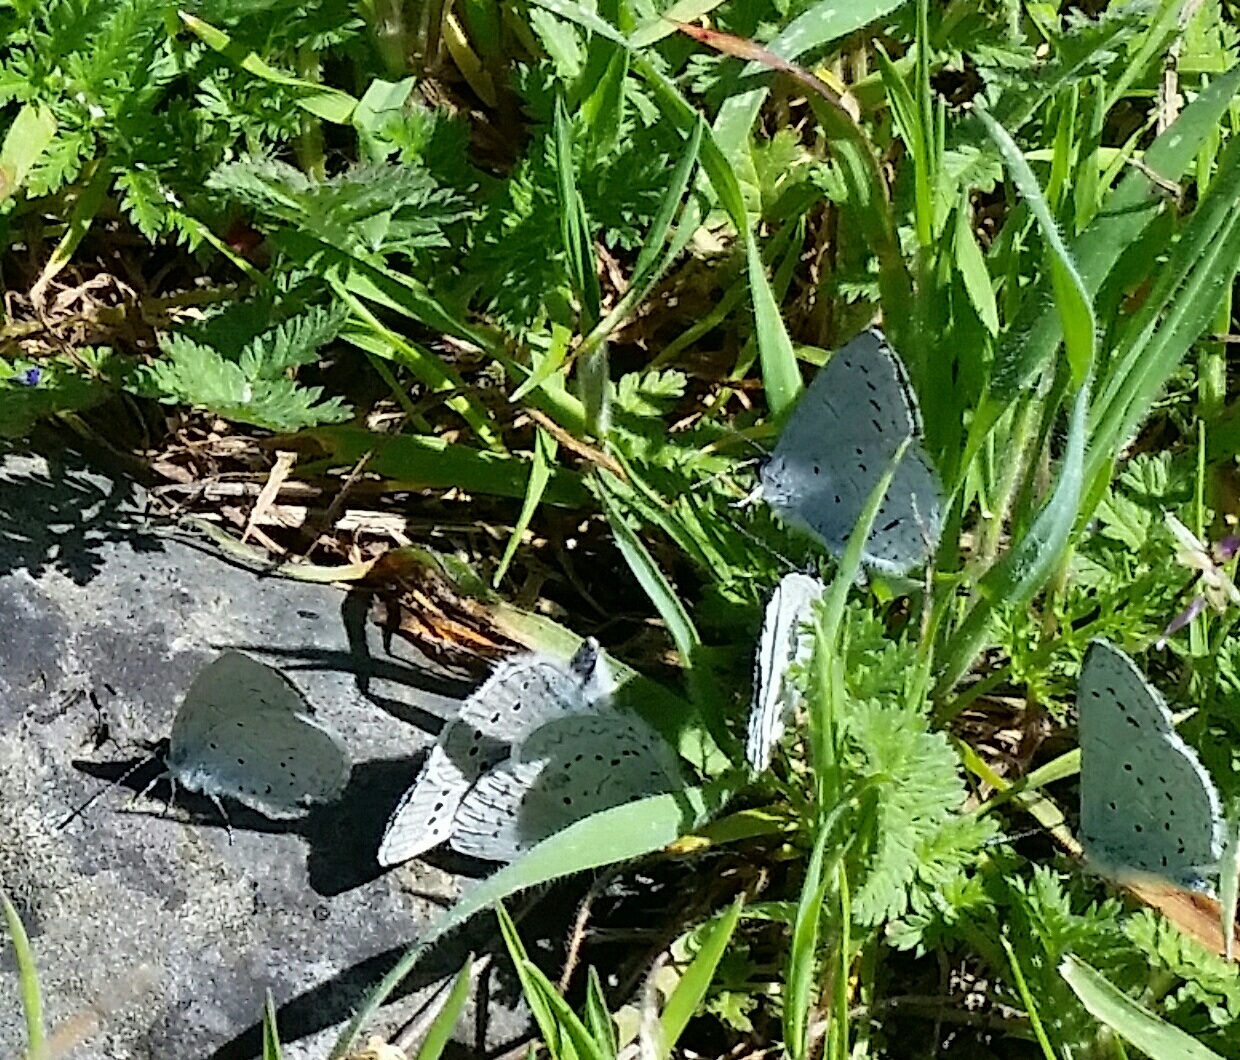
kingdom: Animalia
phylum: Arthropoda
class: Insecta
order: Lepidoptera
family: Lycaenidae
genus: Celastrina
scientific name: Celastrina ladon
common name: Spring azure
